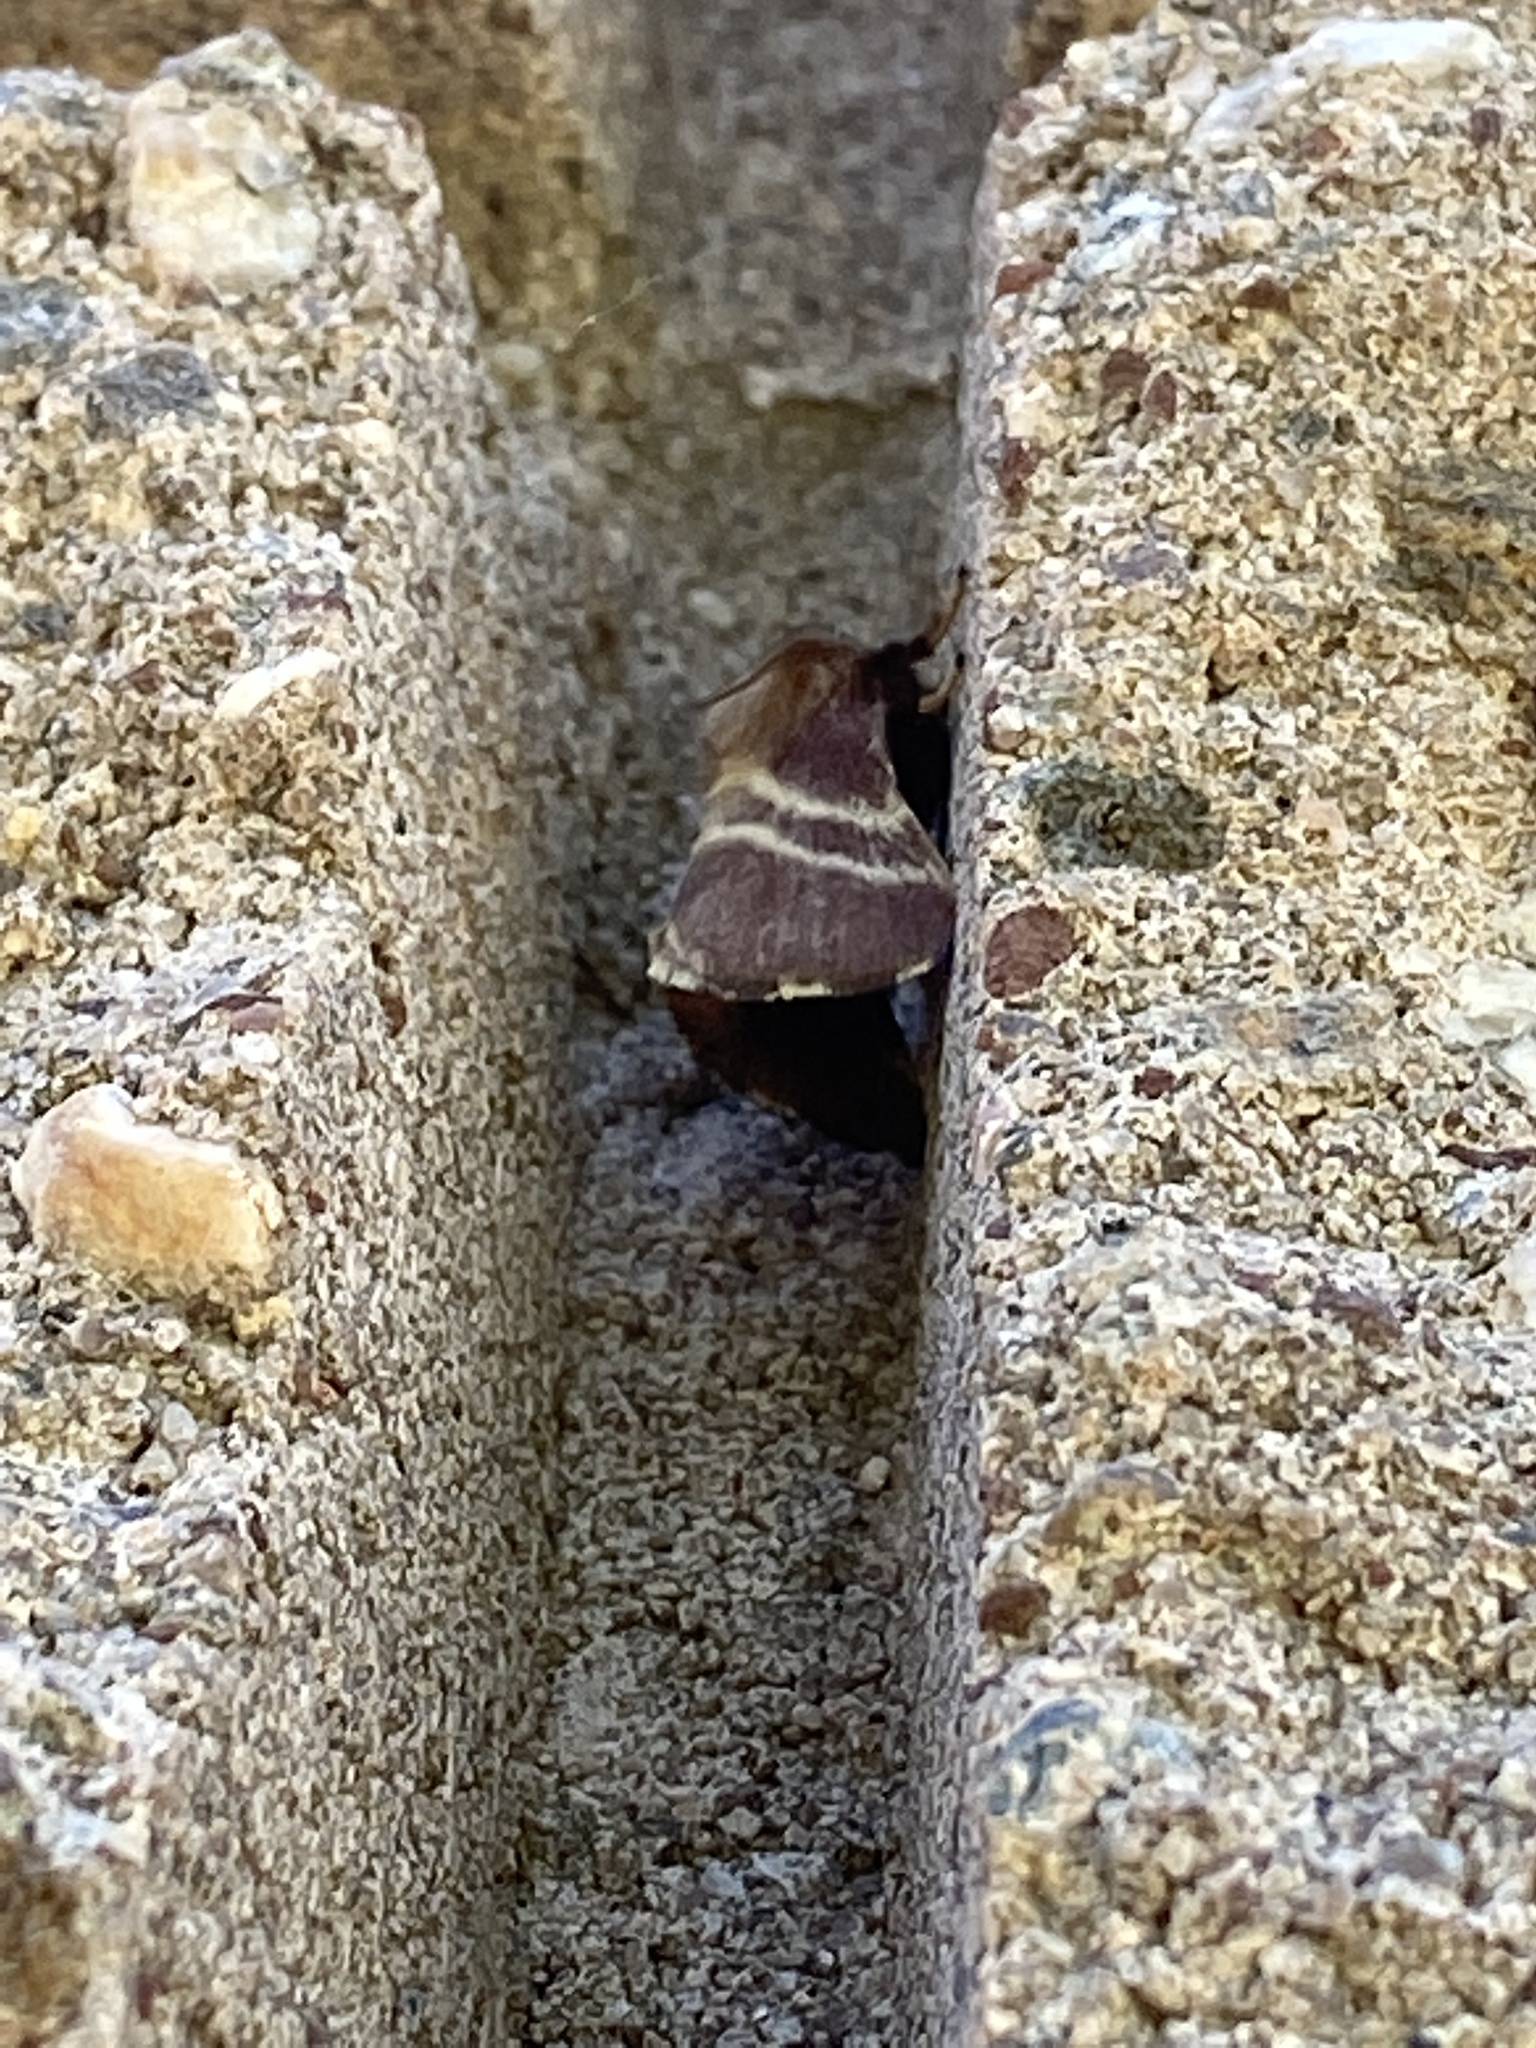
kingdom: Animalia
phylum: Arthropoda
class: Insecta
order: Lepidoptera
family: Lasiocampidae
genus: Malacosoma
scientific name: Malacosoma americana
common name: Eastern tent caterpillar moth
